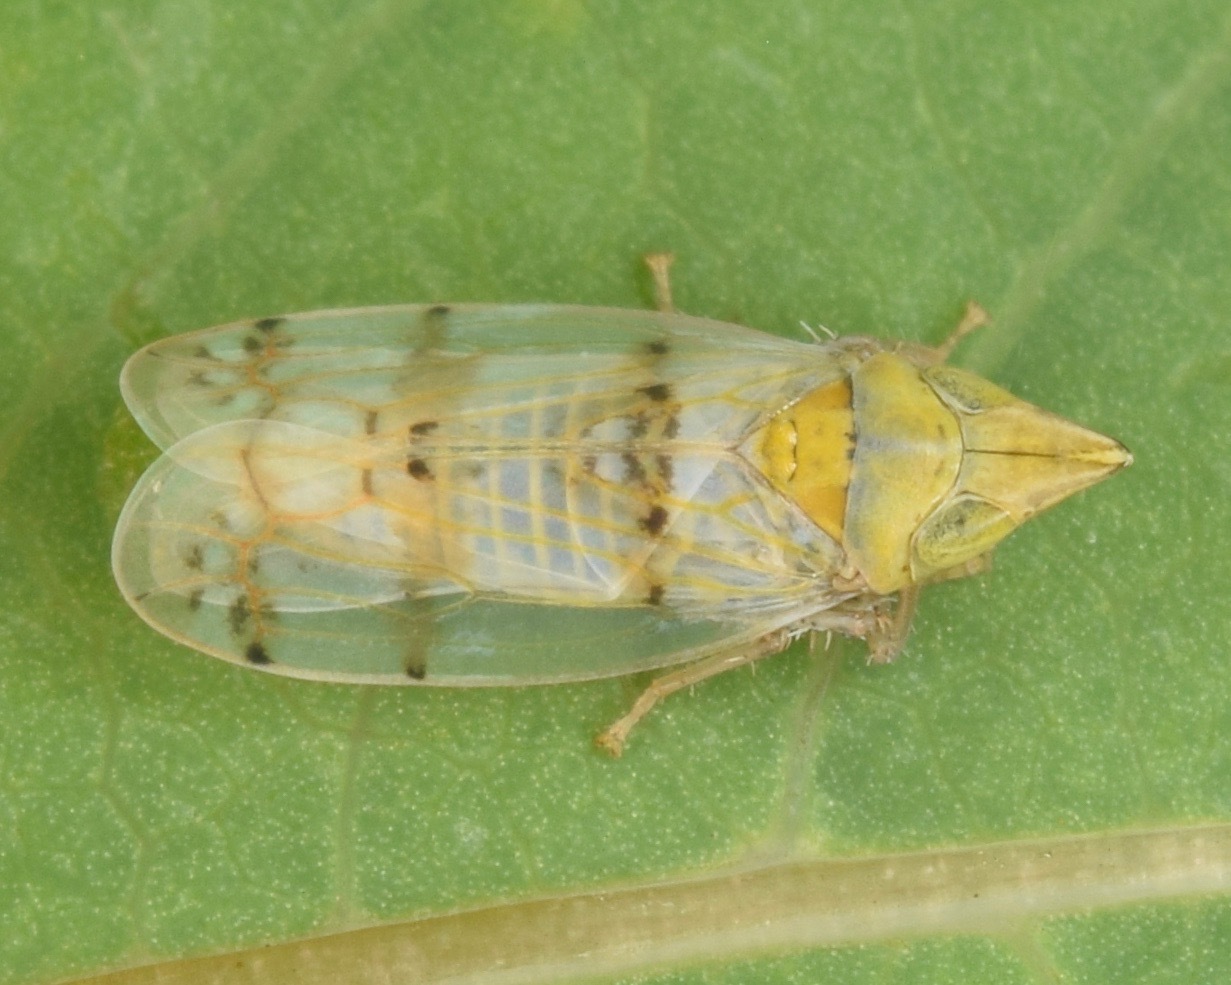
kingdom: Animalia
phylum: Arthropoda
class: Insecta
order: Hemiptera
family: Cicadellidae
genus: Japananus
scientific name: Japananus hyalinus
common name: The japanese maple leafhopper
